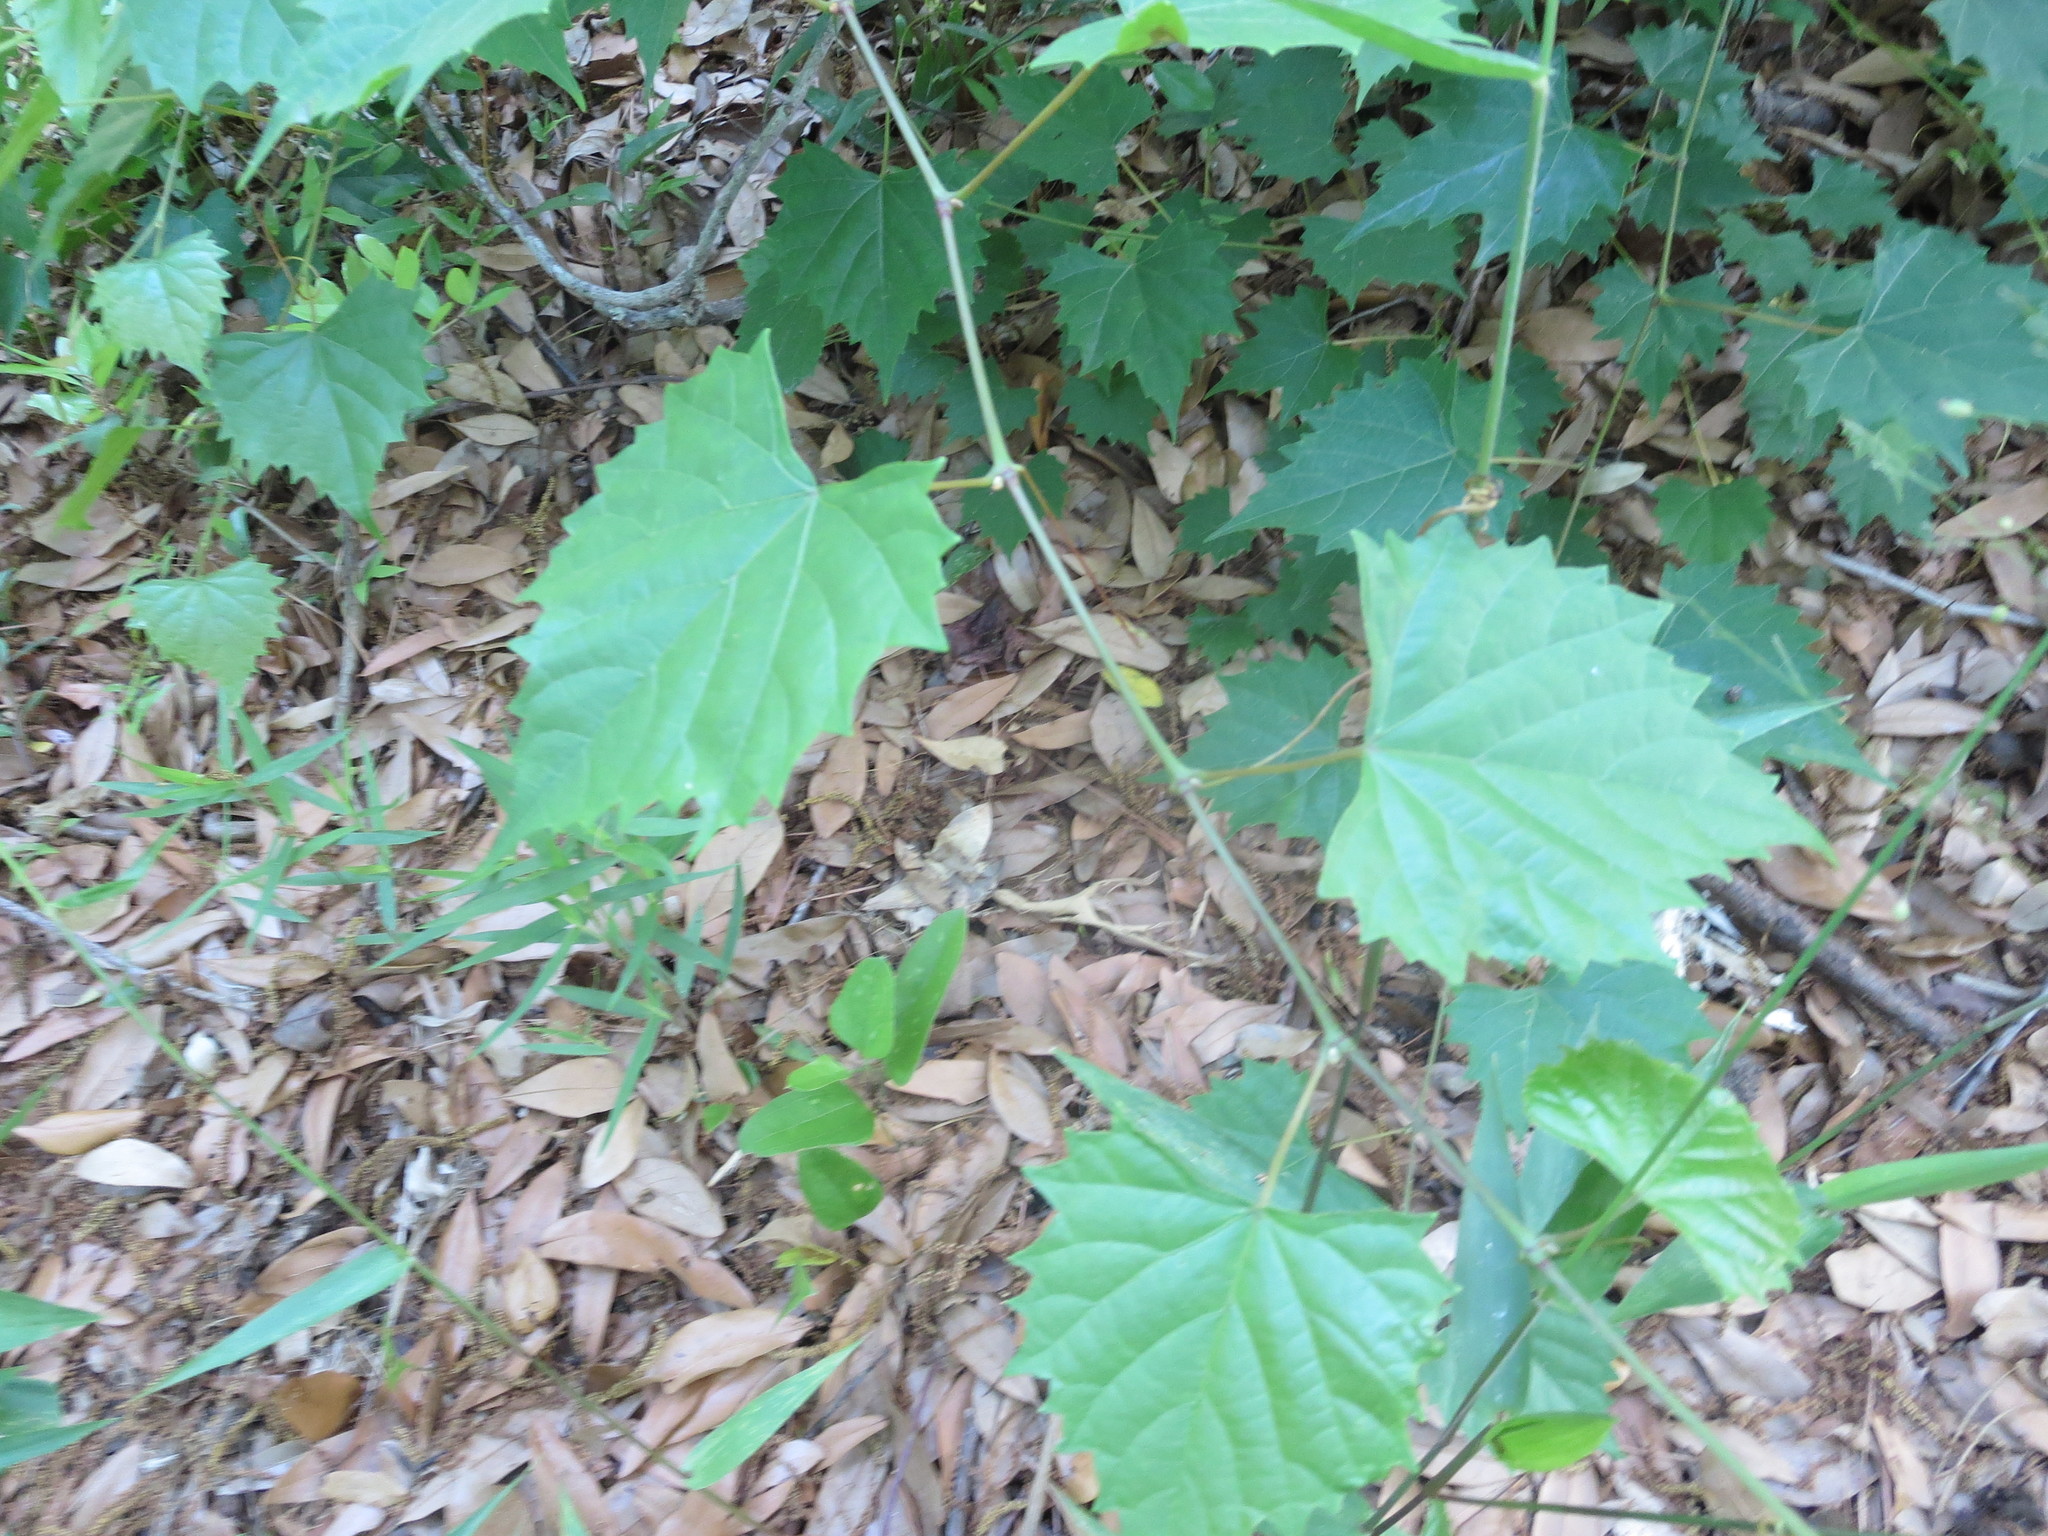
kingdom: Plantae
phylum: Tracheophyta
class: Magnoliopsida
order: Vitales
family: Vitaceae
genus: Vitis
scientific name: Vitis rotundifolia
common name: Muscadine grape
